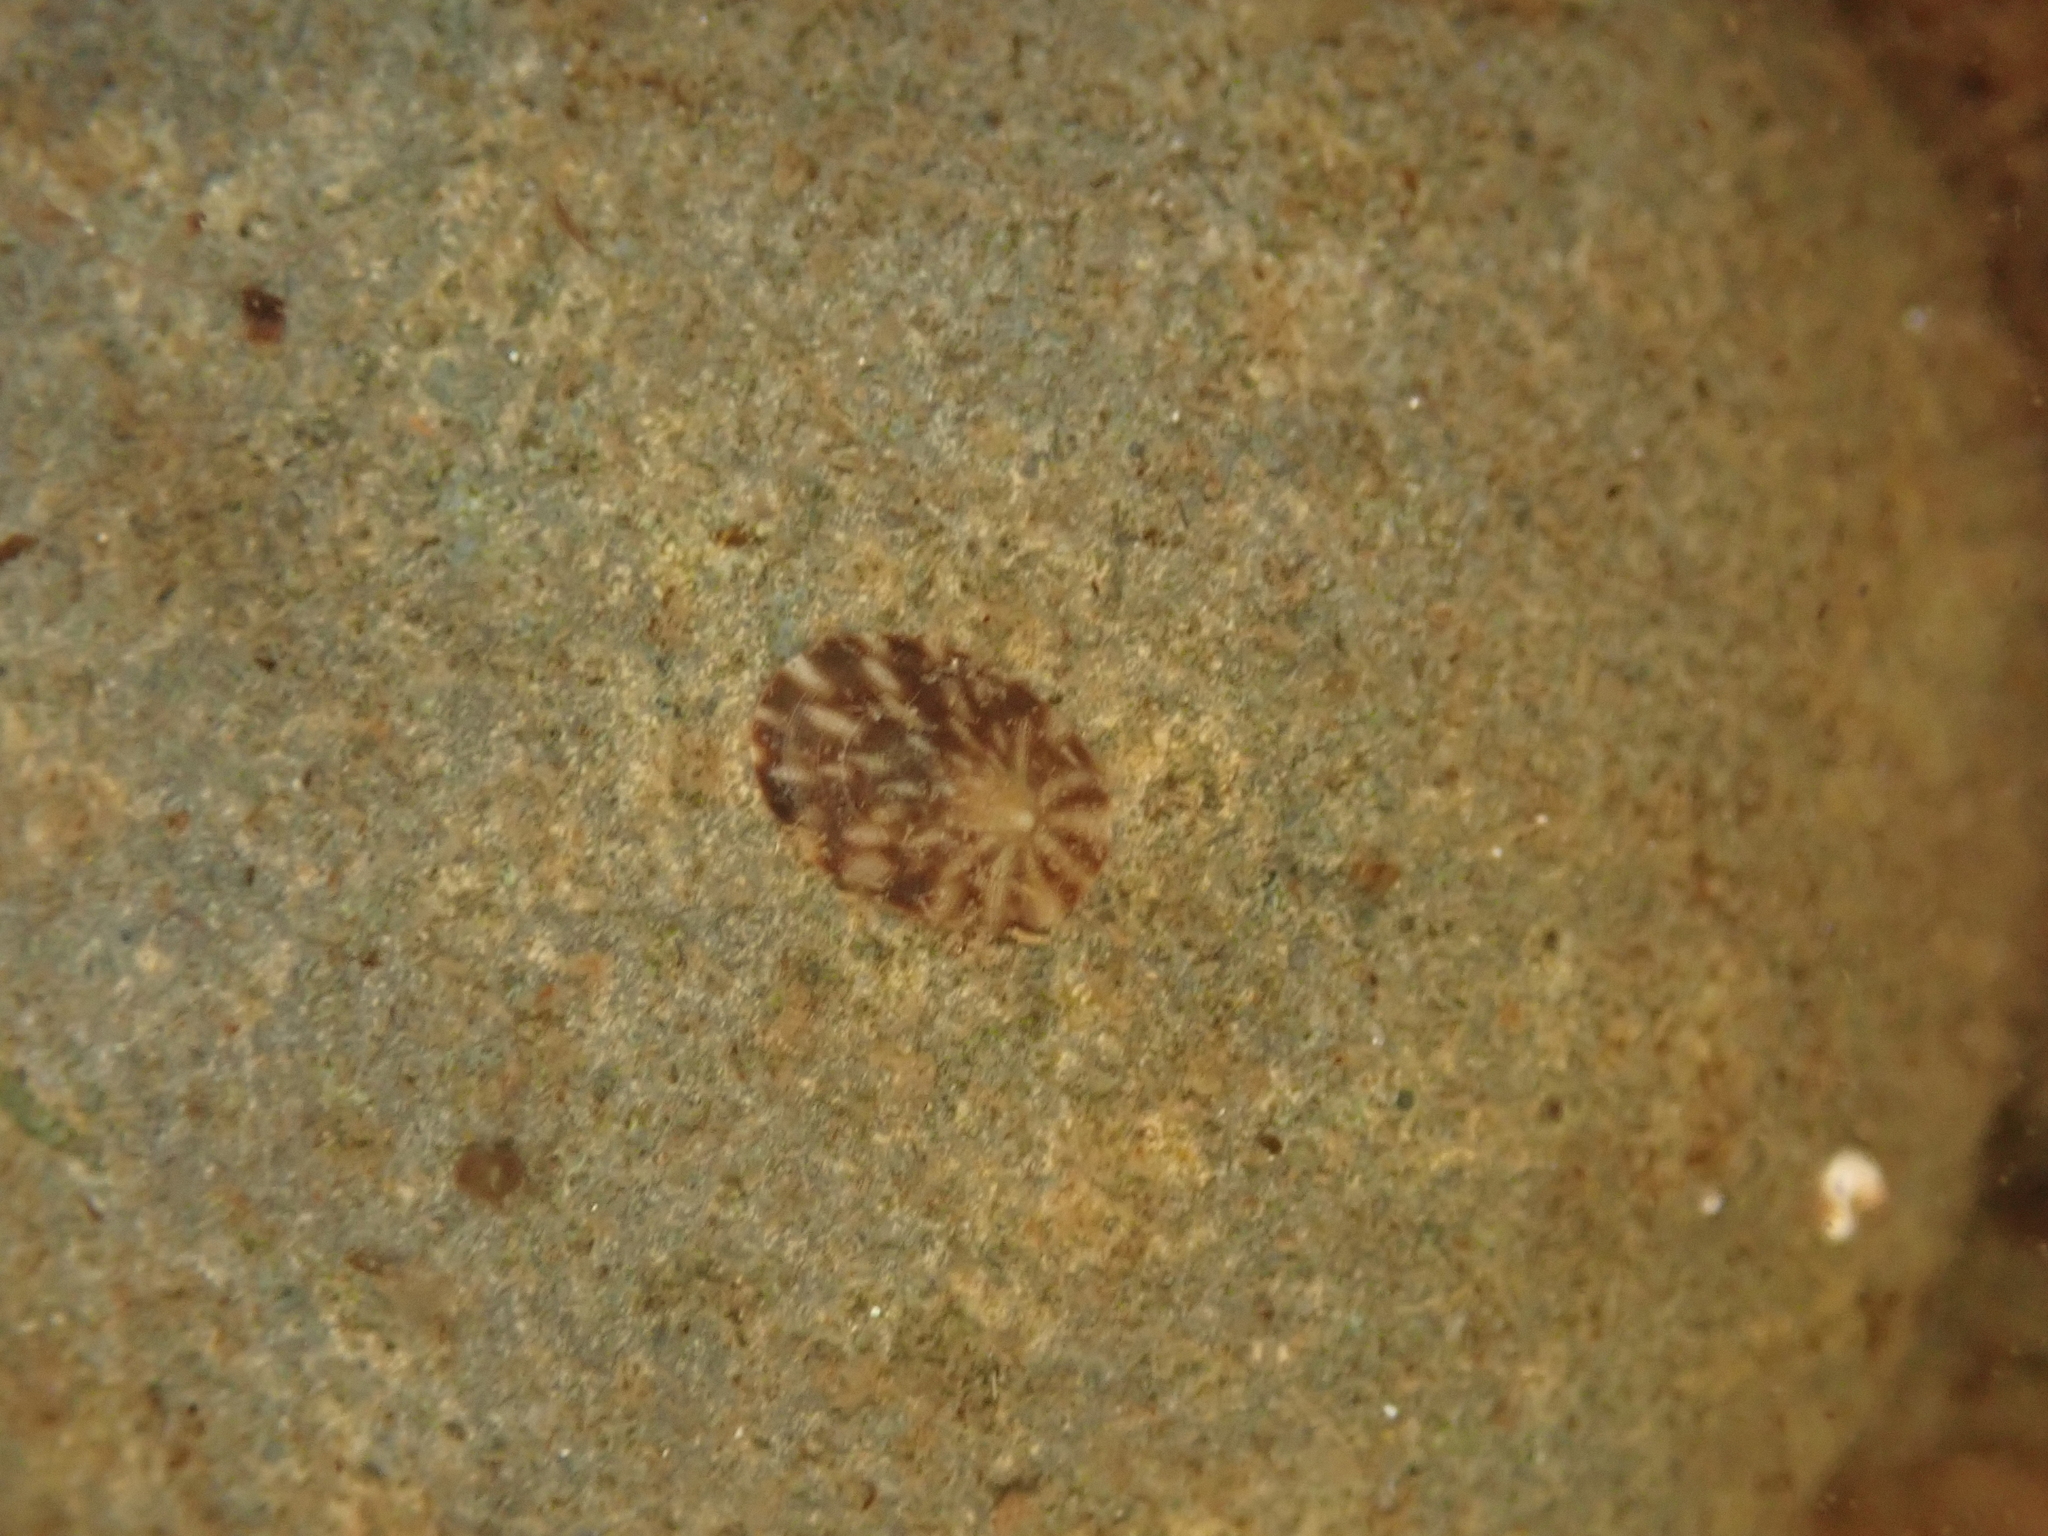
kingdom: Animalia
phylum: Mollusca
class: Gastropoda
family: Lottiidae
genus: Testudinalia
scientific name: Testudinalia testudinalis
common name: Common tortoiseshell limpet
